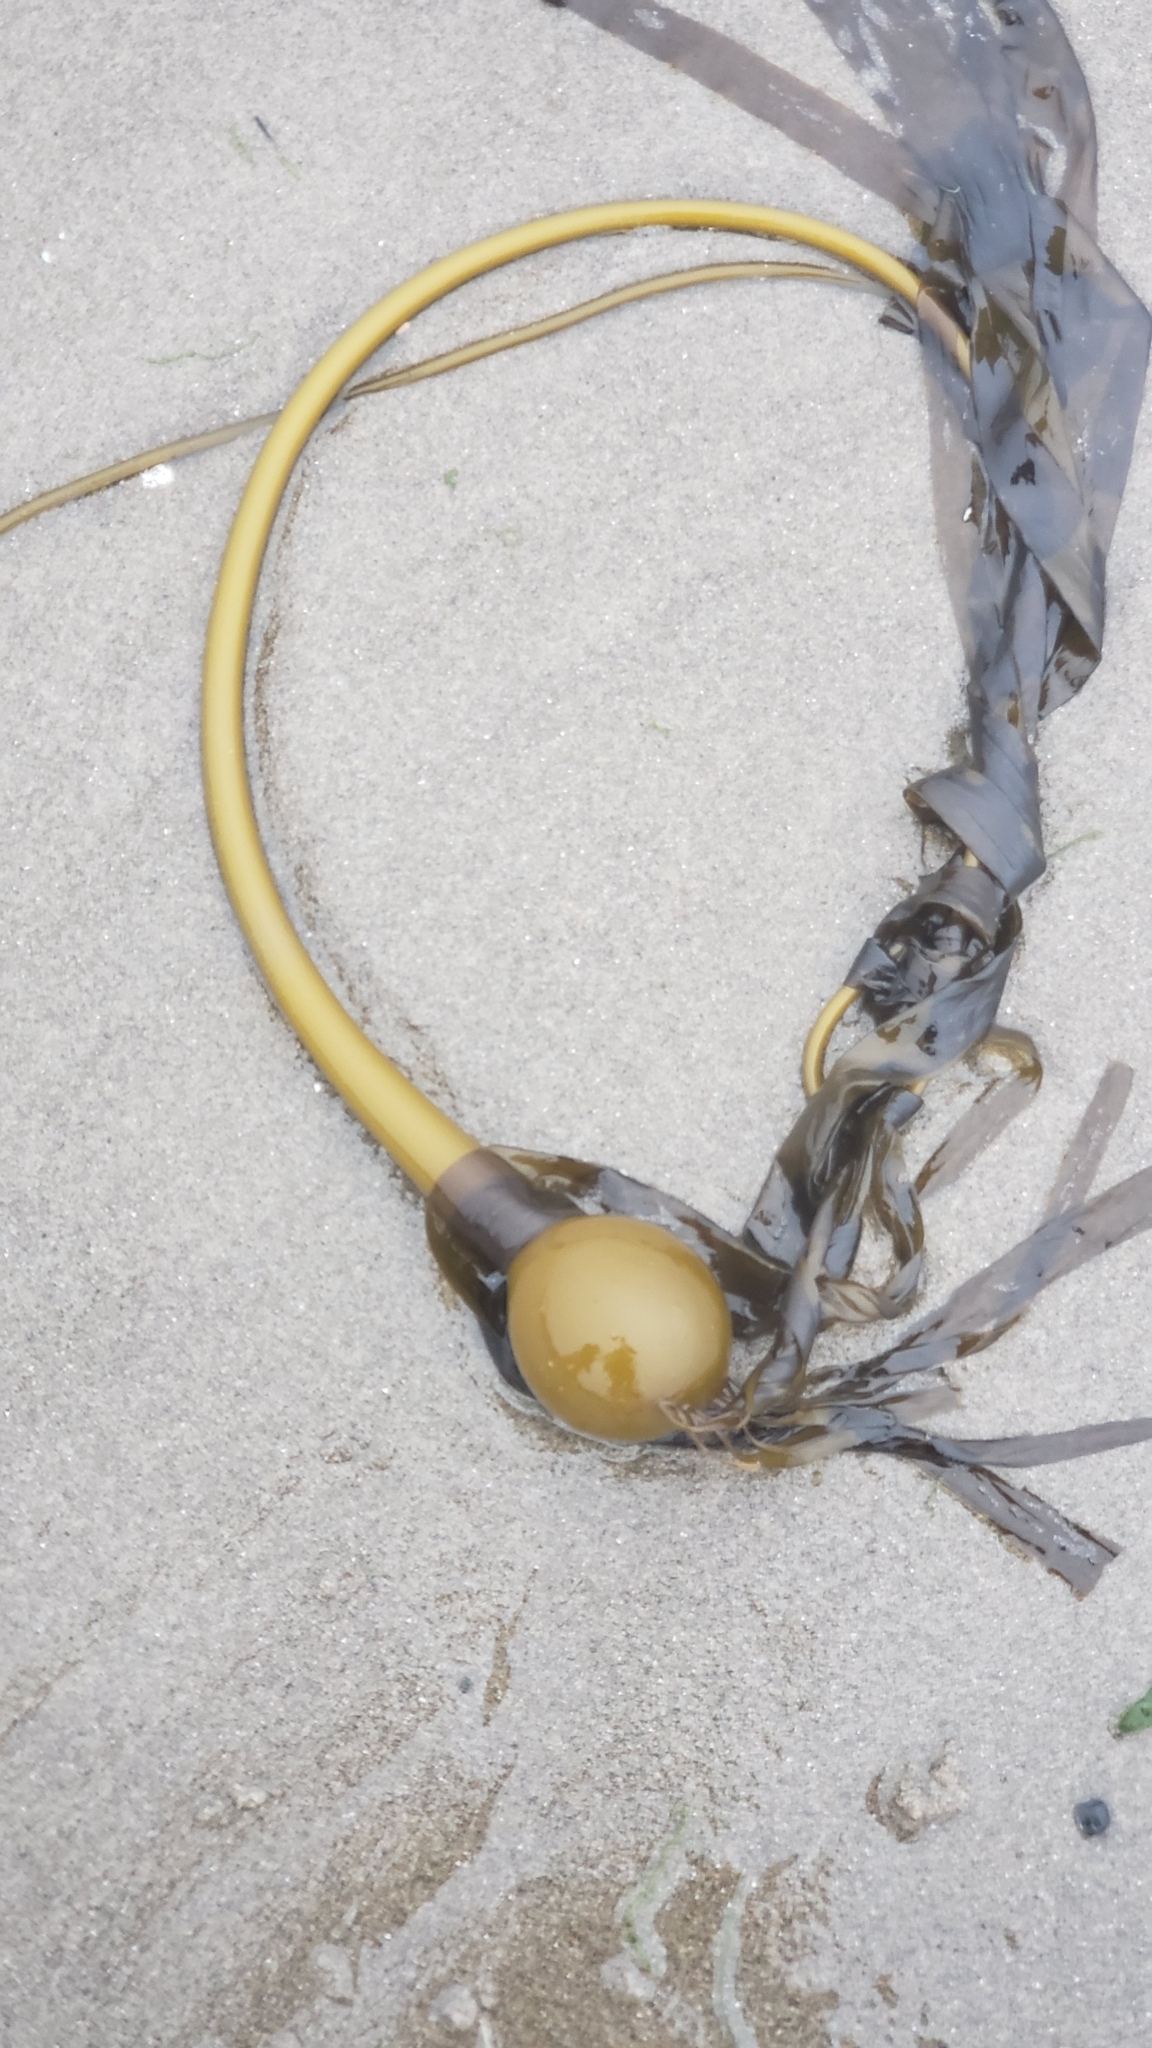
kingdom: Chromista
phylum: Ochrophyta
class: Phaeophyceae
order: Laminariales
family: Laminariaceae
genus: Nereocystis
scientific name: Nereocystis luetkeana
